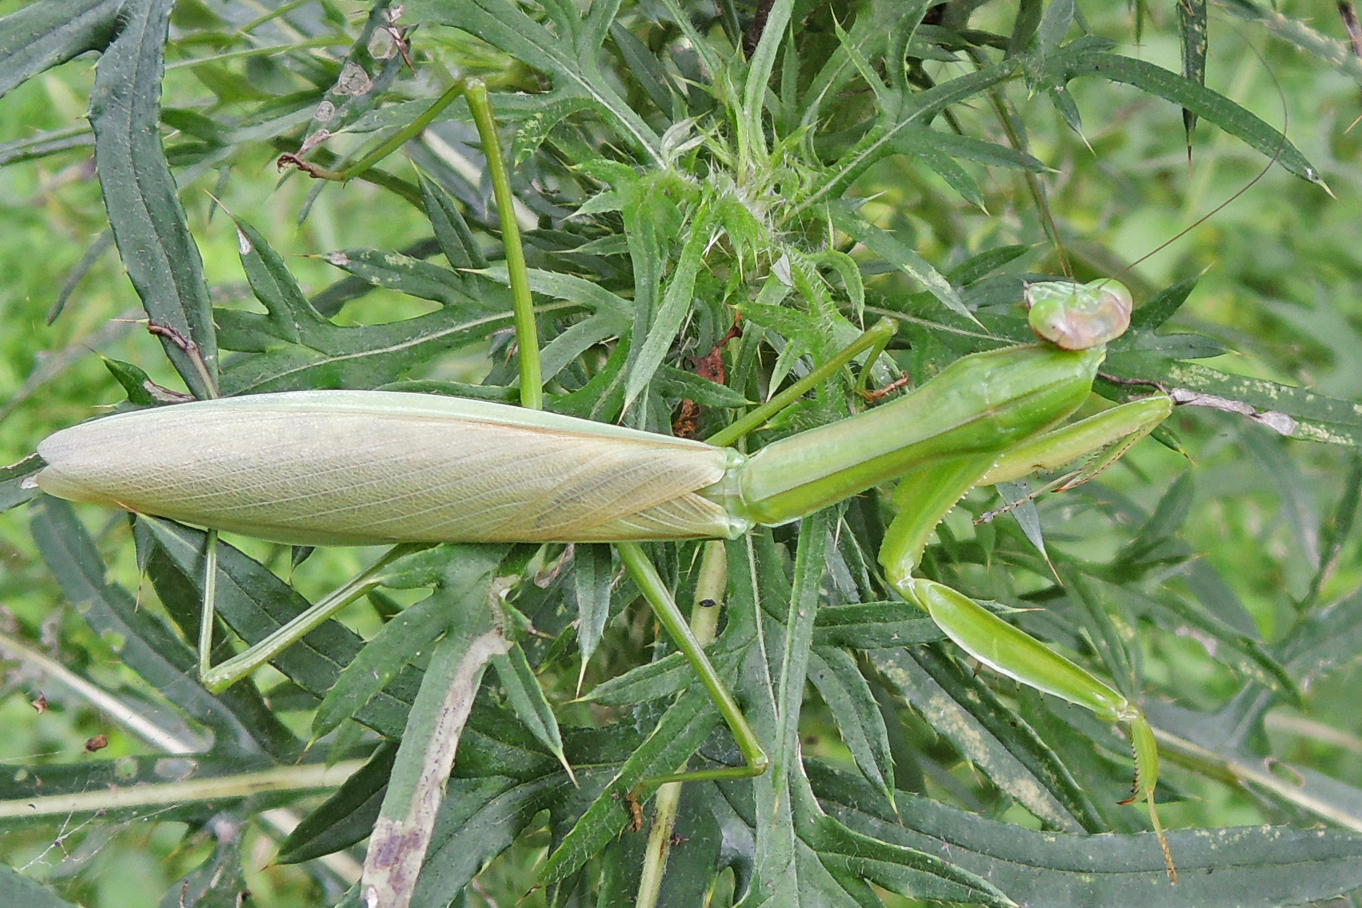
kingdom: Animalia
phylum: Arthropoda
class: Insecta
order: Mantodea
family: Mantidae
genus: Tenodera
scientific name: Tenodera sinensis
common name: Chinese mantis
